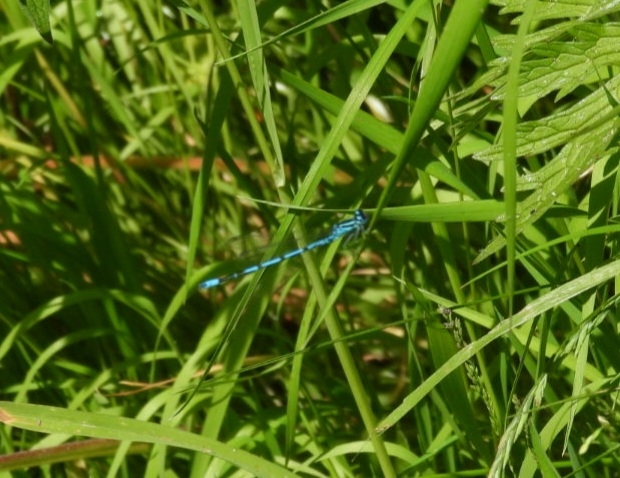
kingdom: Animalia
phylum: Arthropoda
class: Insecta
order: Odonata
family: Coenagrionidae
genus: Coenagrion
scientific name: Coenagrion puella
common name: Azure damselfly
